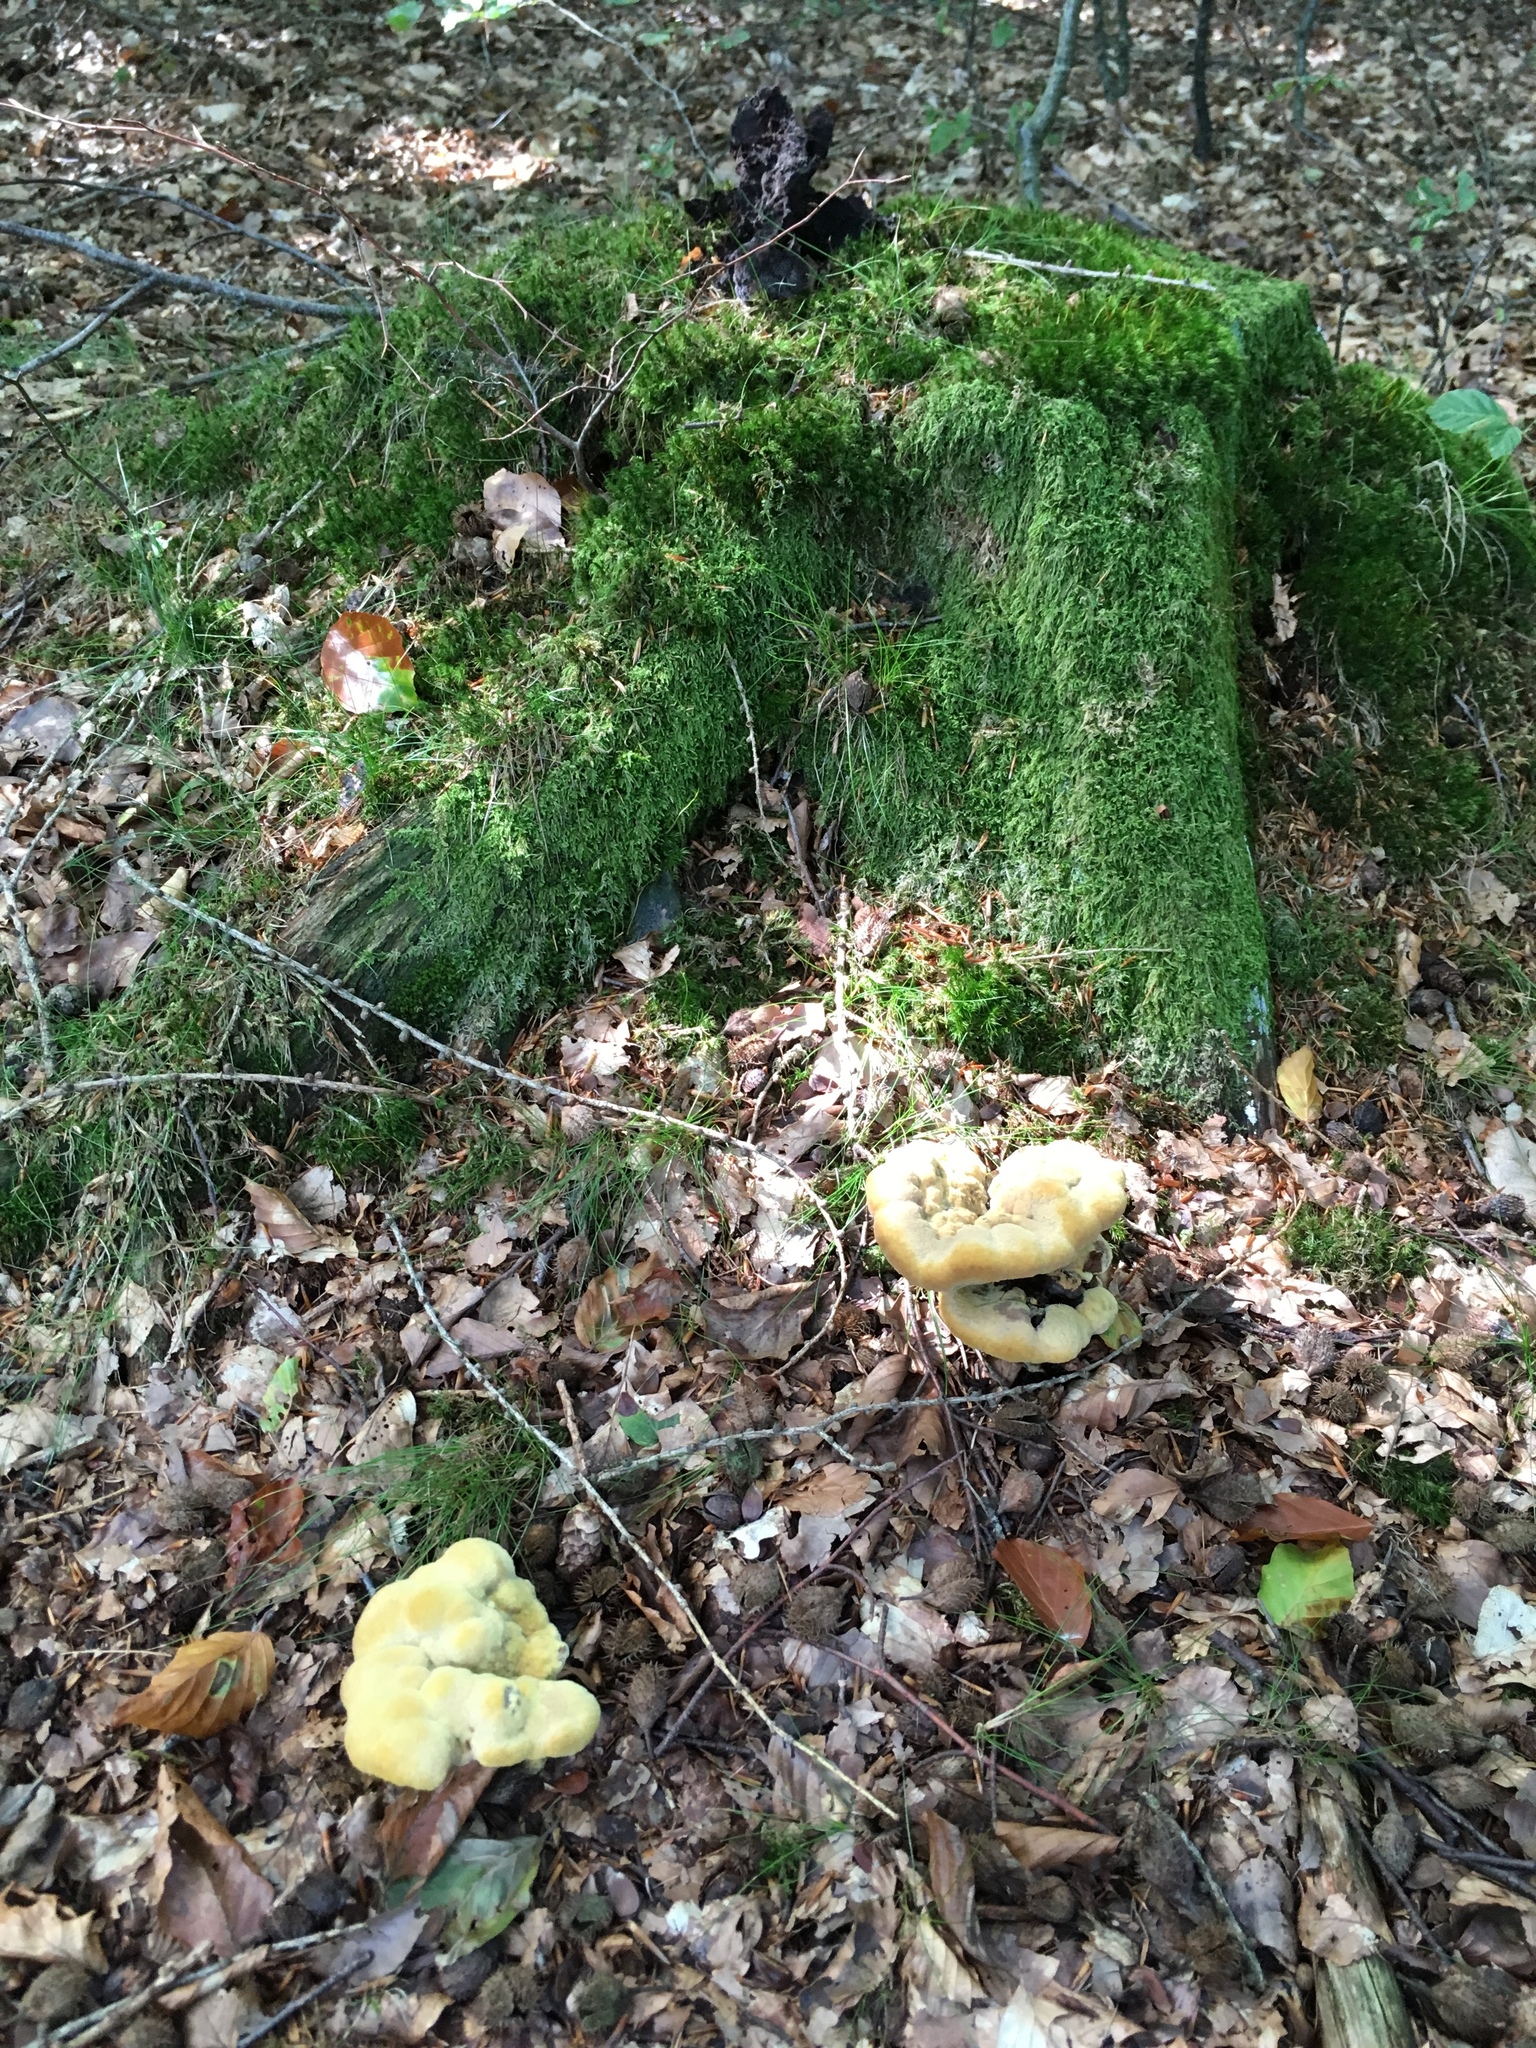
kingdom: Fungi
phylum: Basidiomycota
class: Agaricomycetes
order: Polyporales
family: Laetiporaceae
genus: Phaeolus
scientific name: Phaeolus schweinitzii
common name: Dyer's mazegill
